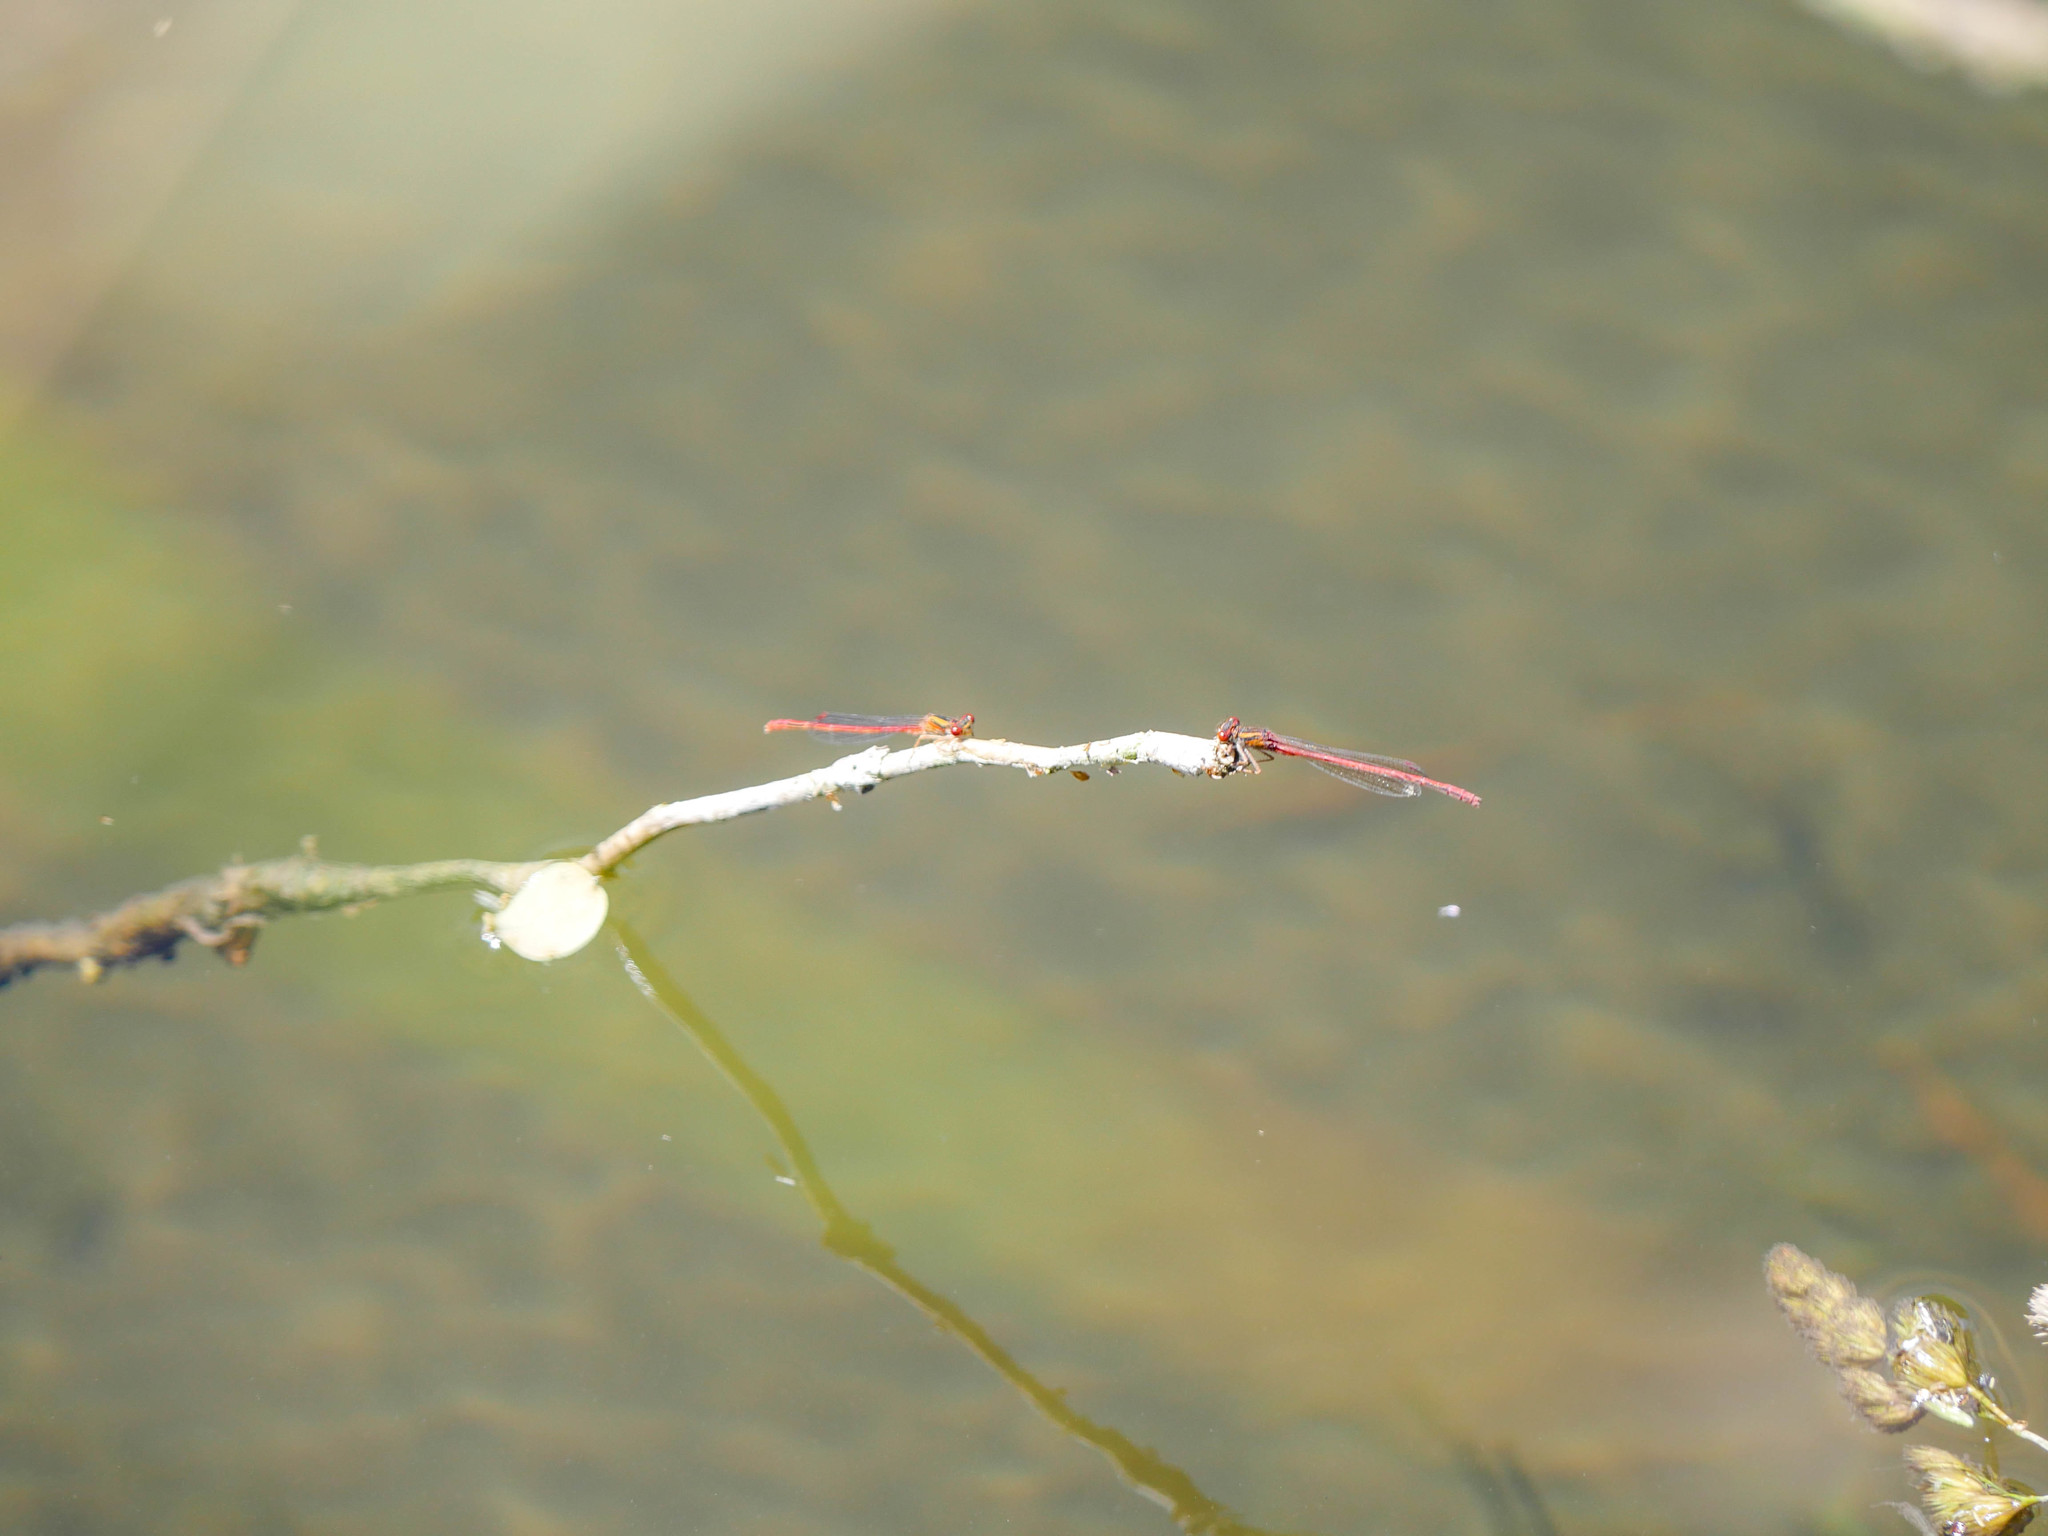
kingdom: Animalia
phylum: Arthropoda
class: Insecta
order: Odonata
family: Coenagrionidae
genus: Xanthocnemis
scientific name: Xanthocnemis zealandica
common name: Common redcoat damselfly
